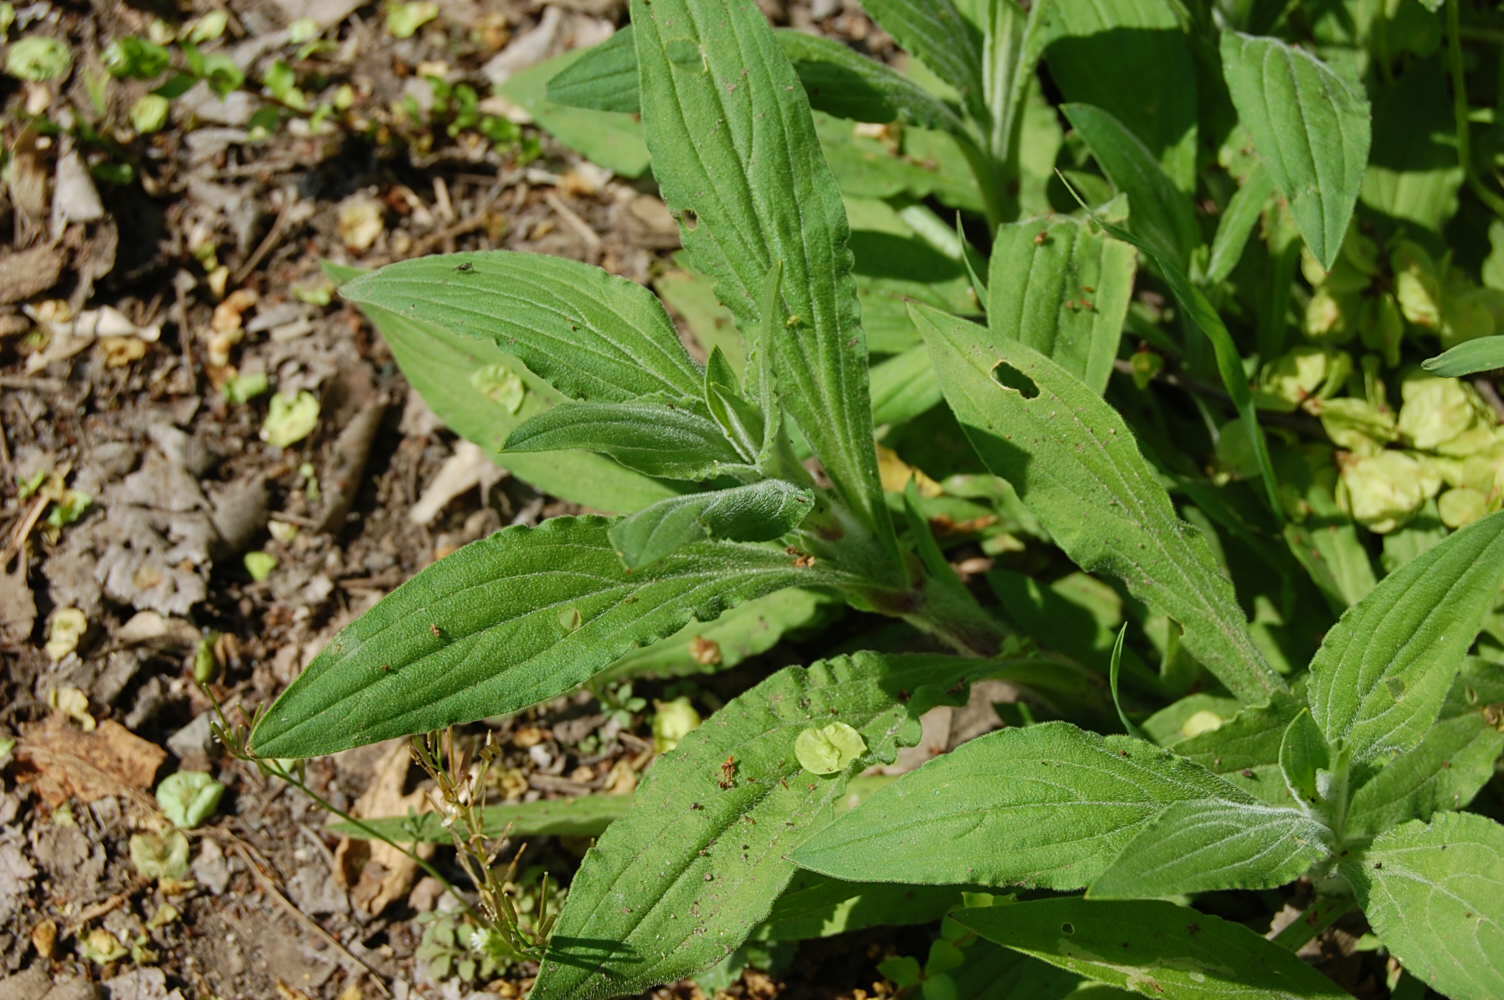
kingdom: Plantae
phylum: Tracheophyta
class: Magnoliopsida
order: Caryophyllales
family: Caryophyllaceae
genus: Silene
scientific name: Silene latifolia
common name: White campion
